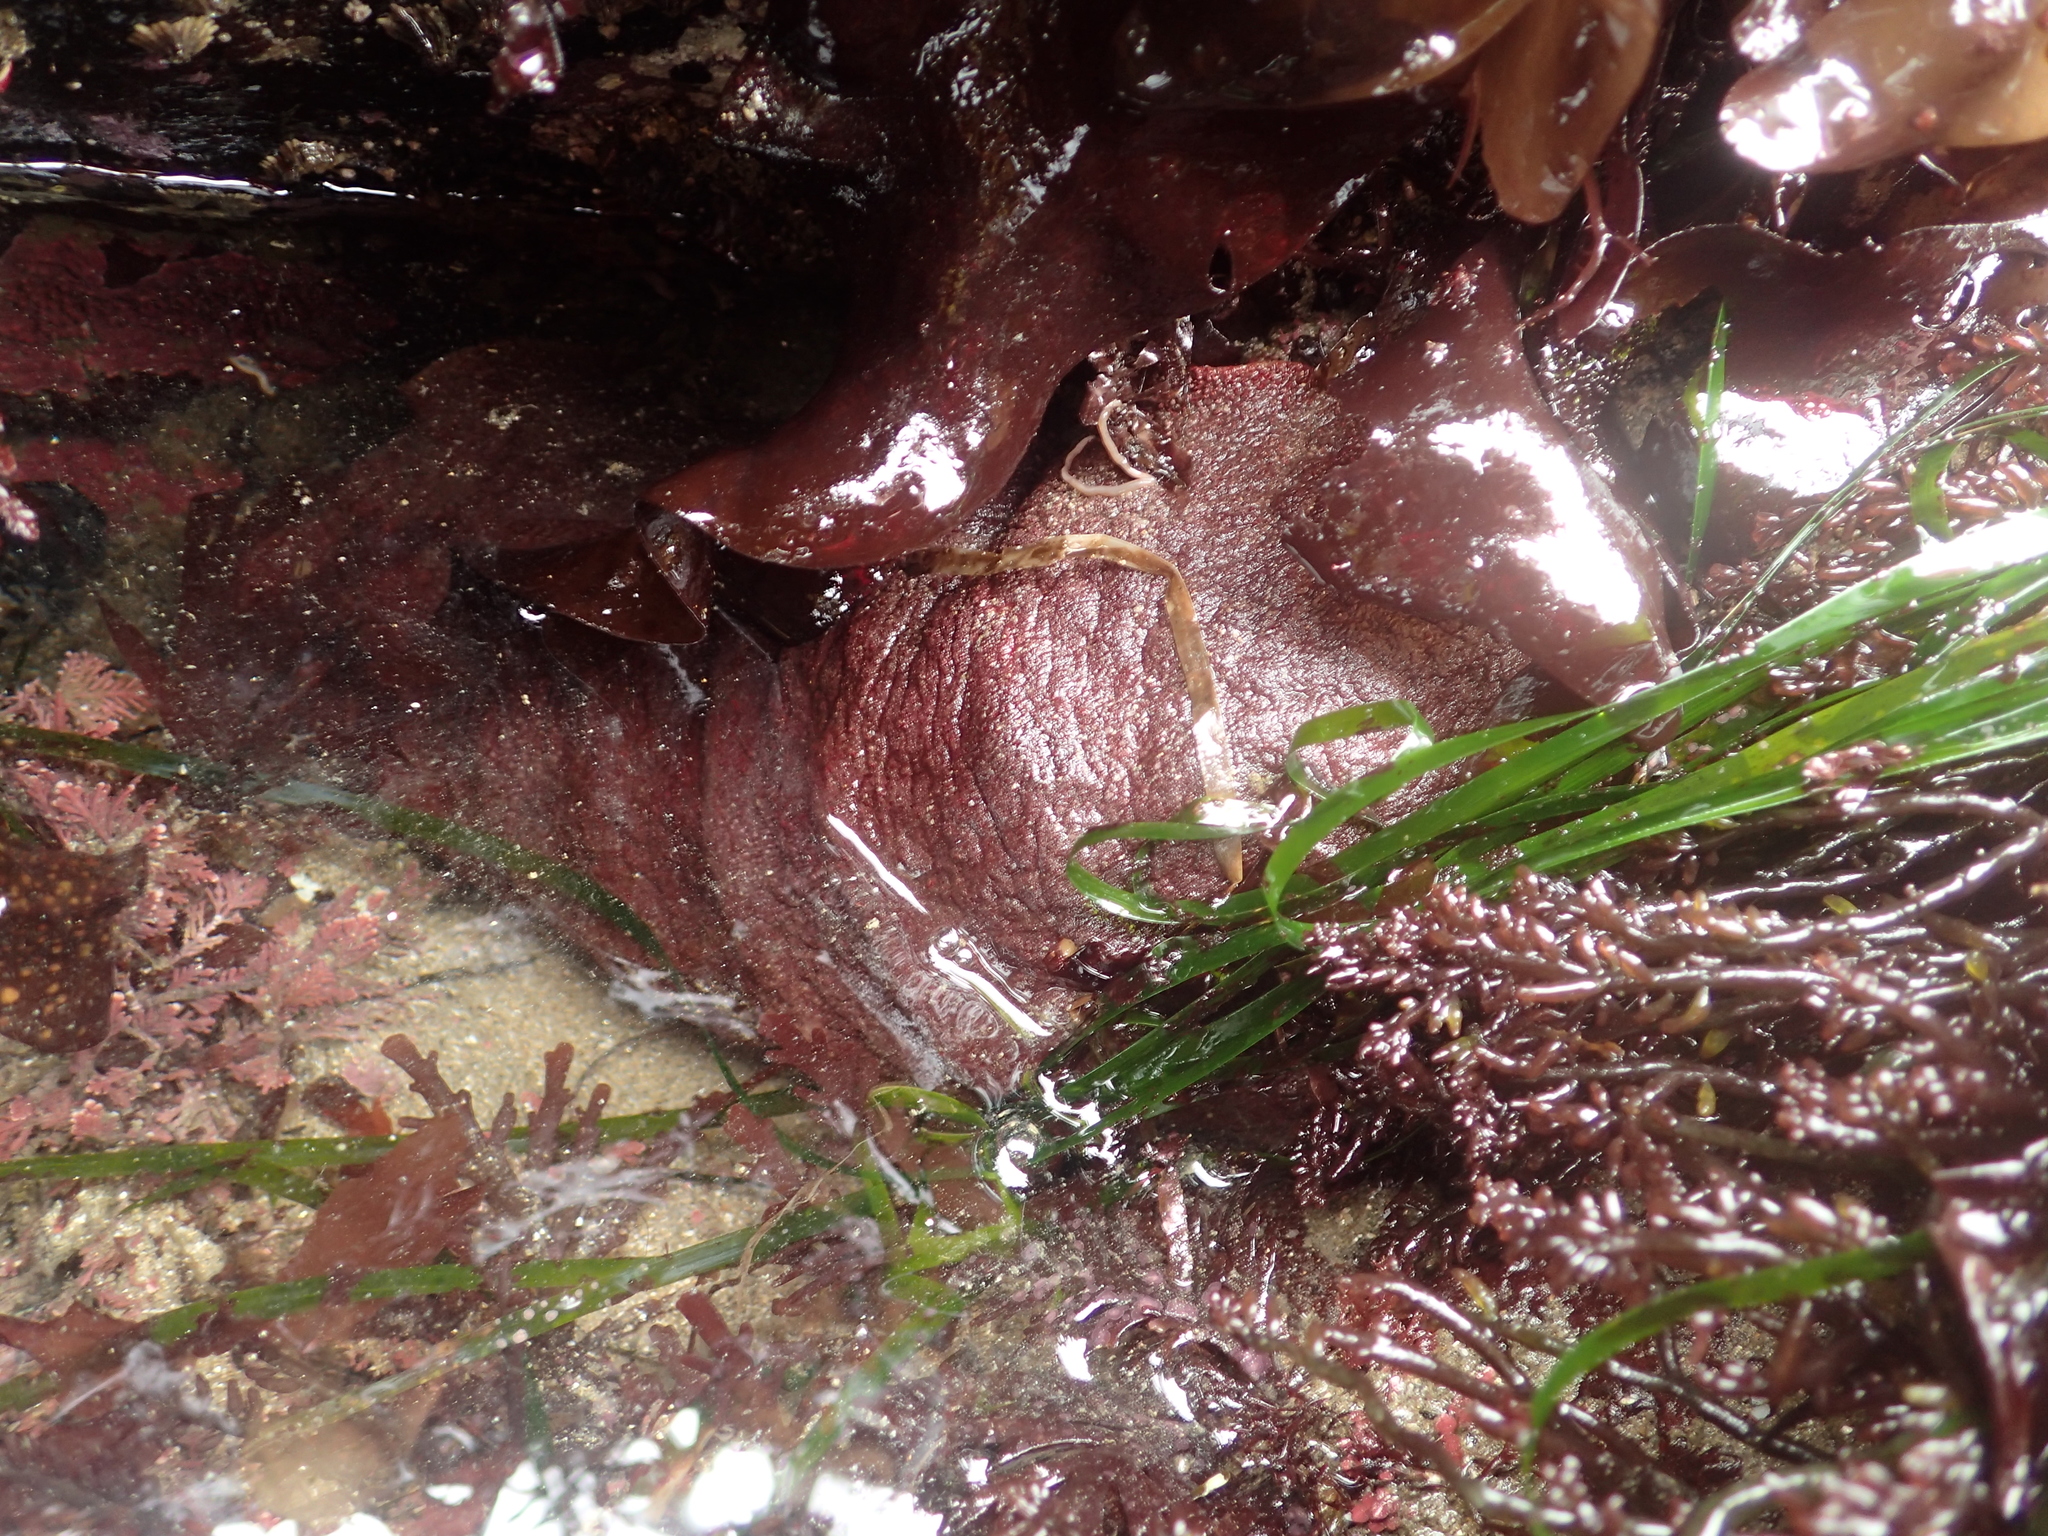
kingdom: Animalia
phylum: Mollusca
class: Polyplacophora
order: Chitonida
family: Acanthochitonidae
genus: Cryptochiton
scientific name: Cryptochiton stelleri
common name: Giant pacific chiton
